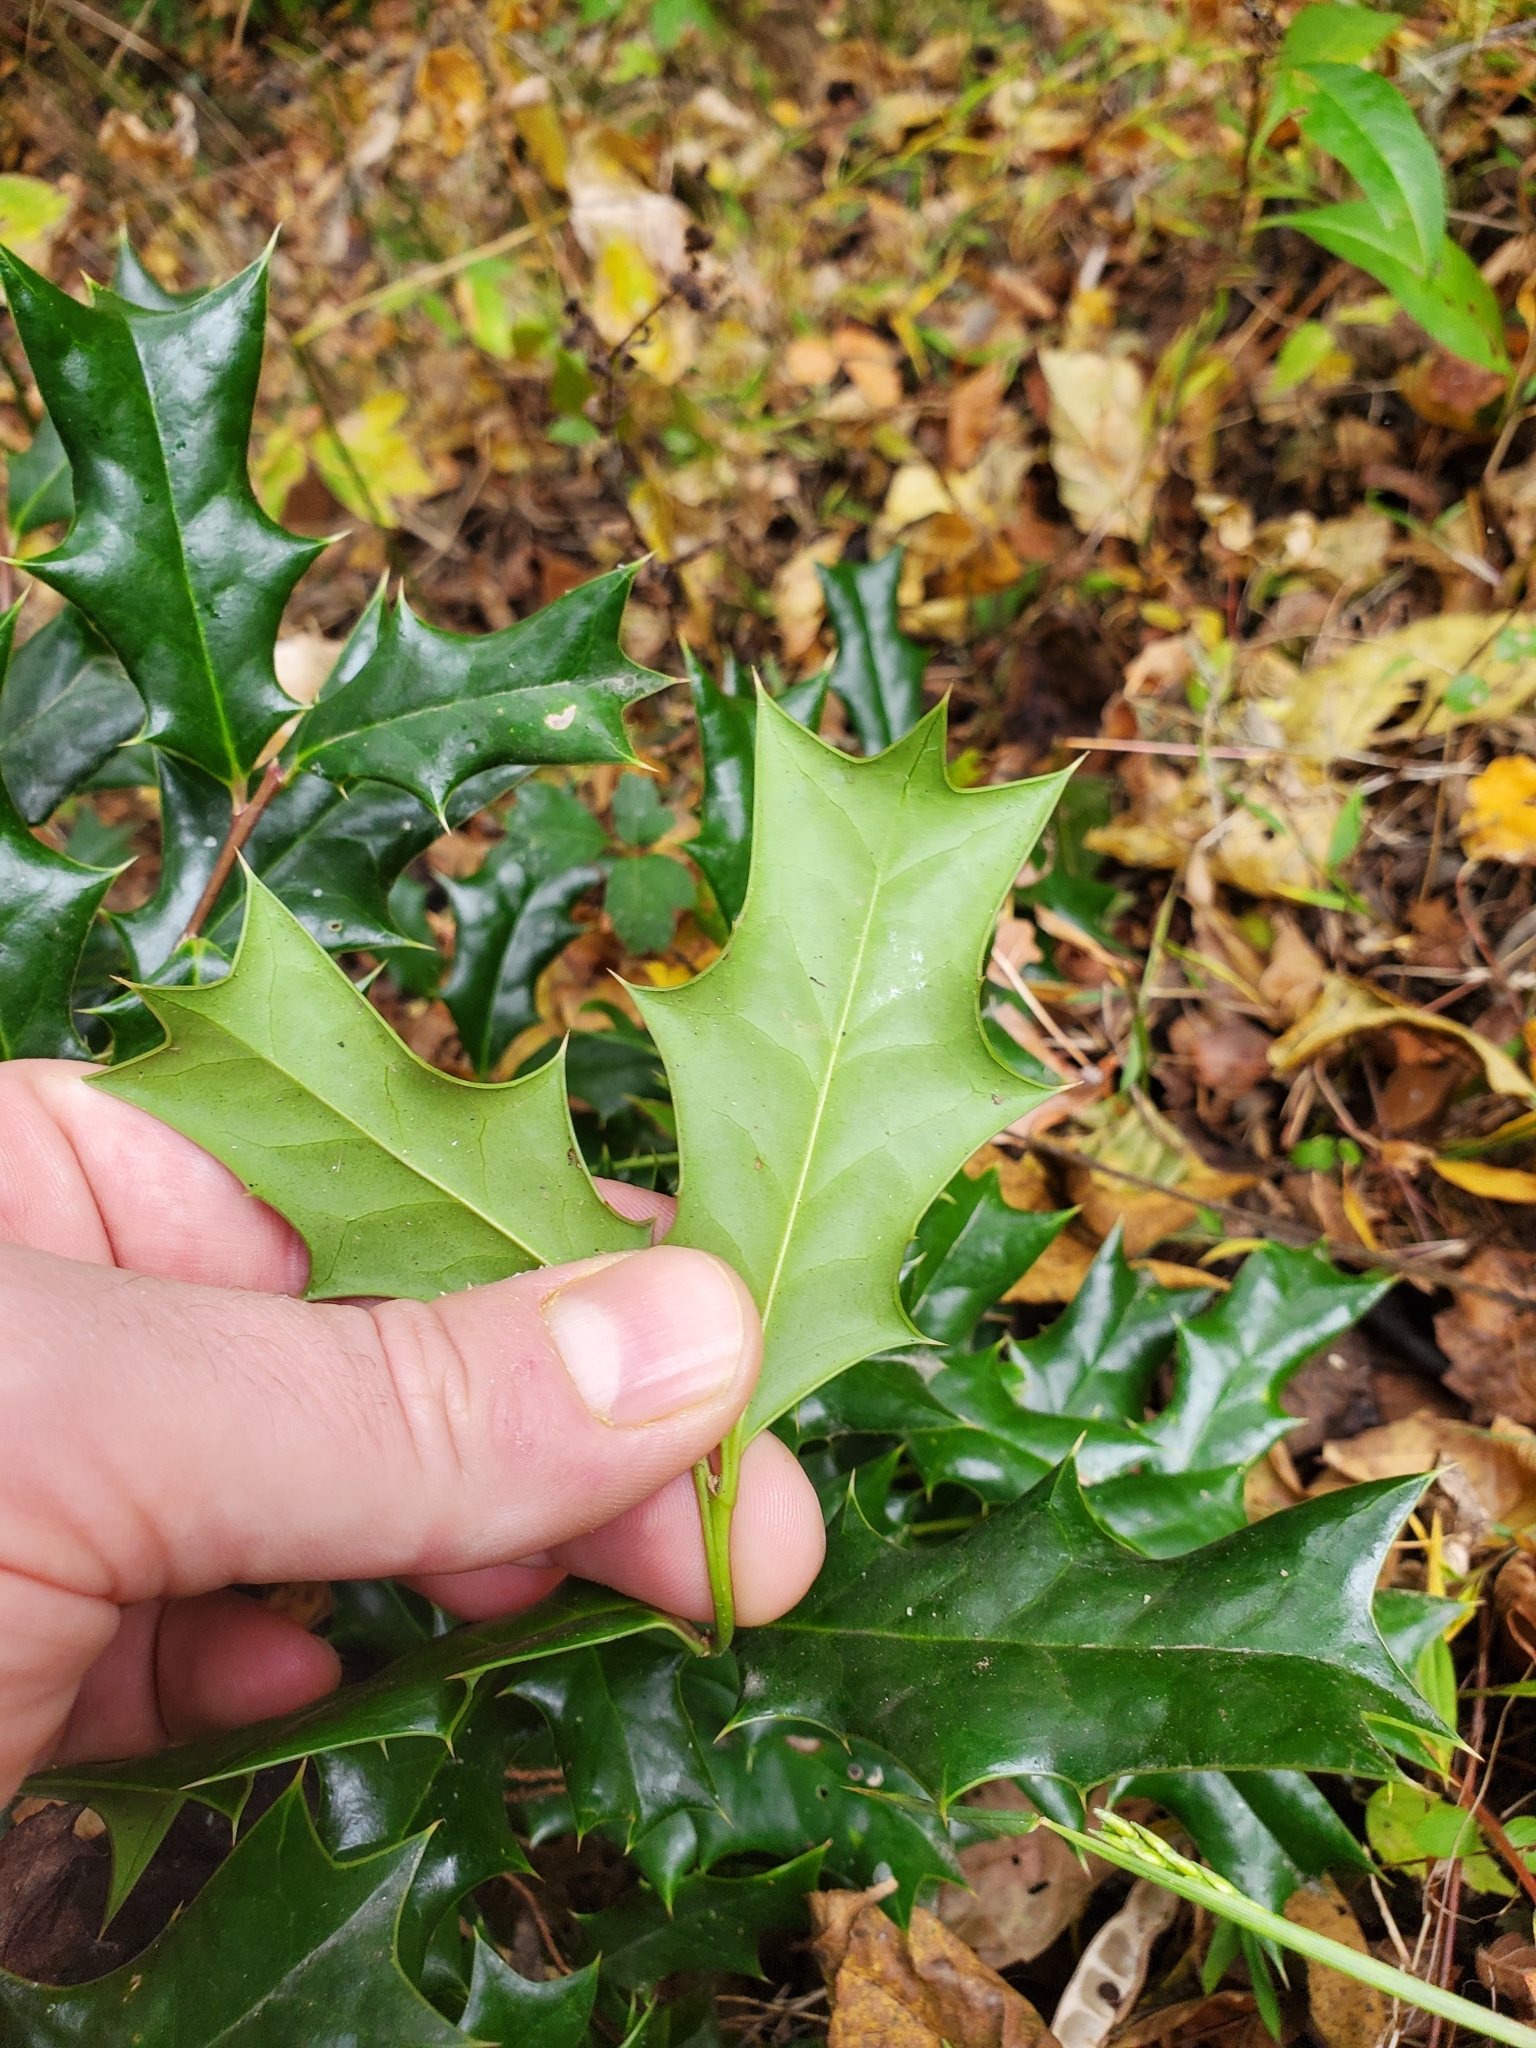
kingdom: Plantae
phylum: Tracheophyta
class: Magnoliopsida
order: Aquifoliales
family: Aquifoliaceae
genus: Ilex
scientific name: Ilex cornuta
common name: Chinese holly
